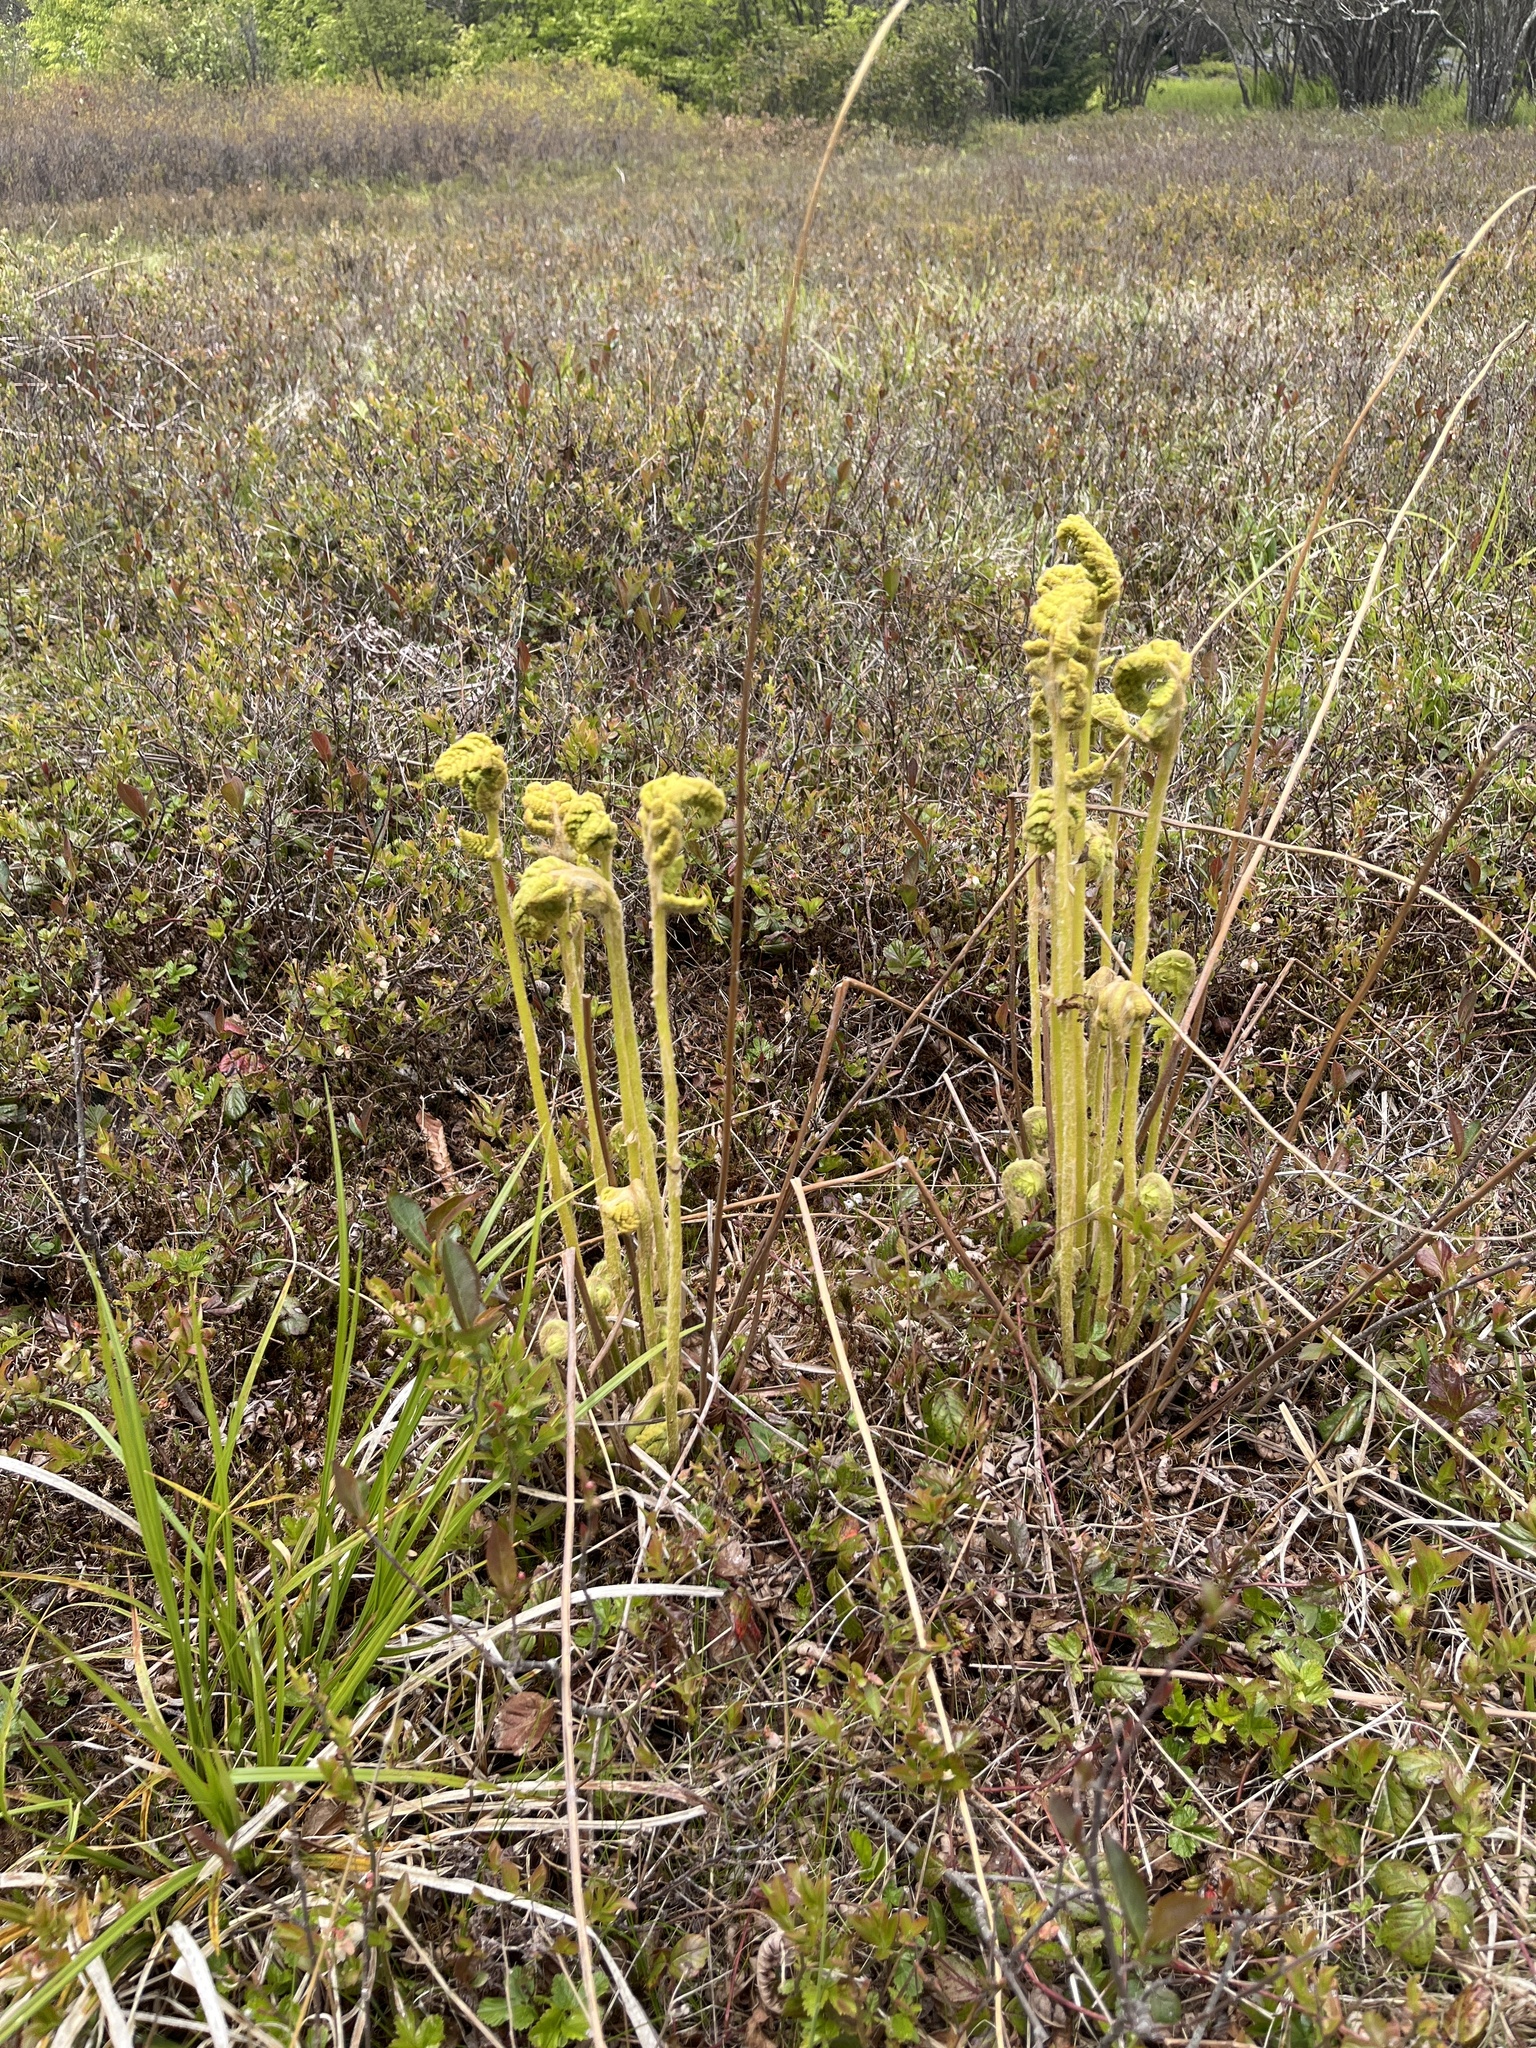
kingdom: Plantae
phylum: Tracheophyta
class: Polypodiopsida
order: Osmundales
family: Osmundaceae
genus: Osmundastrum
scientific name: Osmundastrum cinnamomeum
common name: Cinnamon fern
